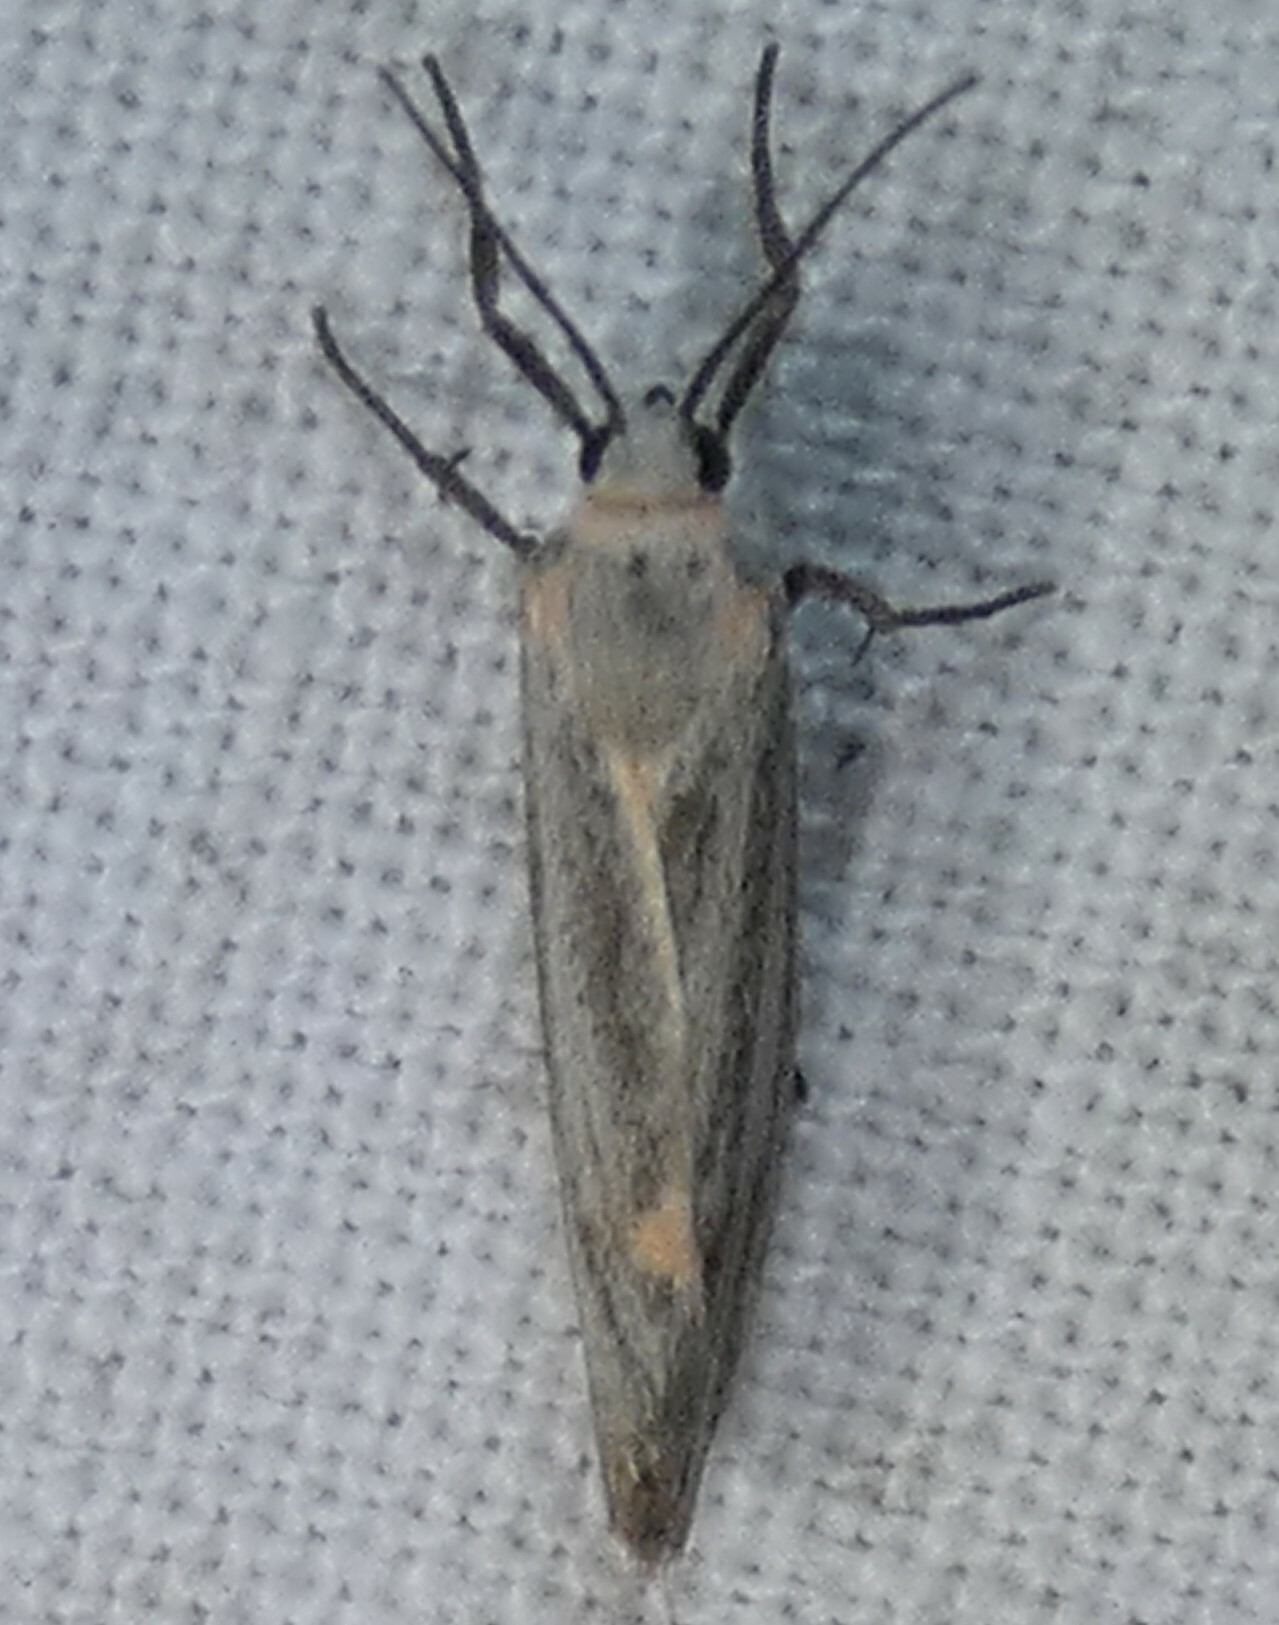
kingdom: Animalia
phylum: Arthropoda
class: Insecta
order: Lepidoptera
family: Erebidae
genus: Cisthene
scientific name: Cisthene striata
